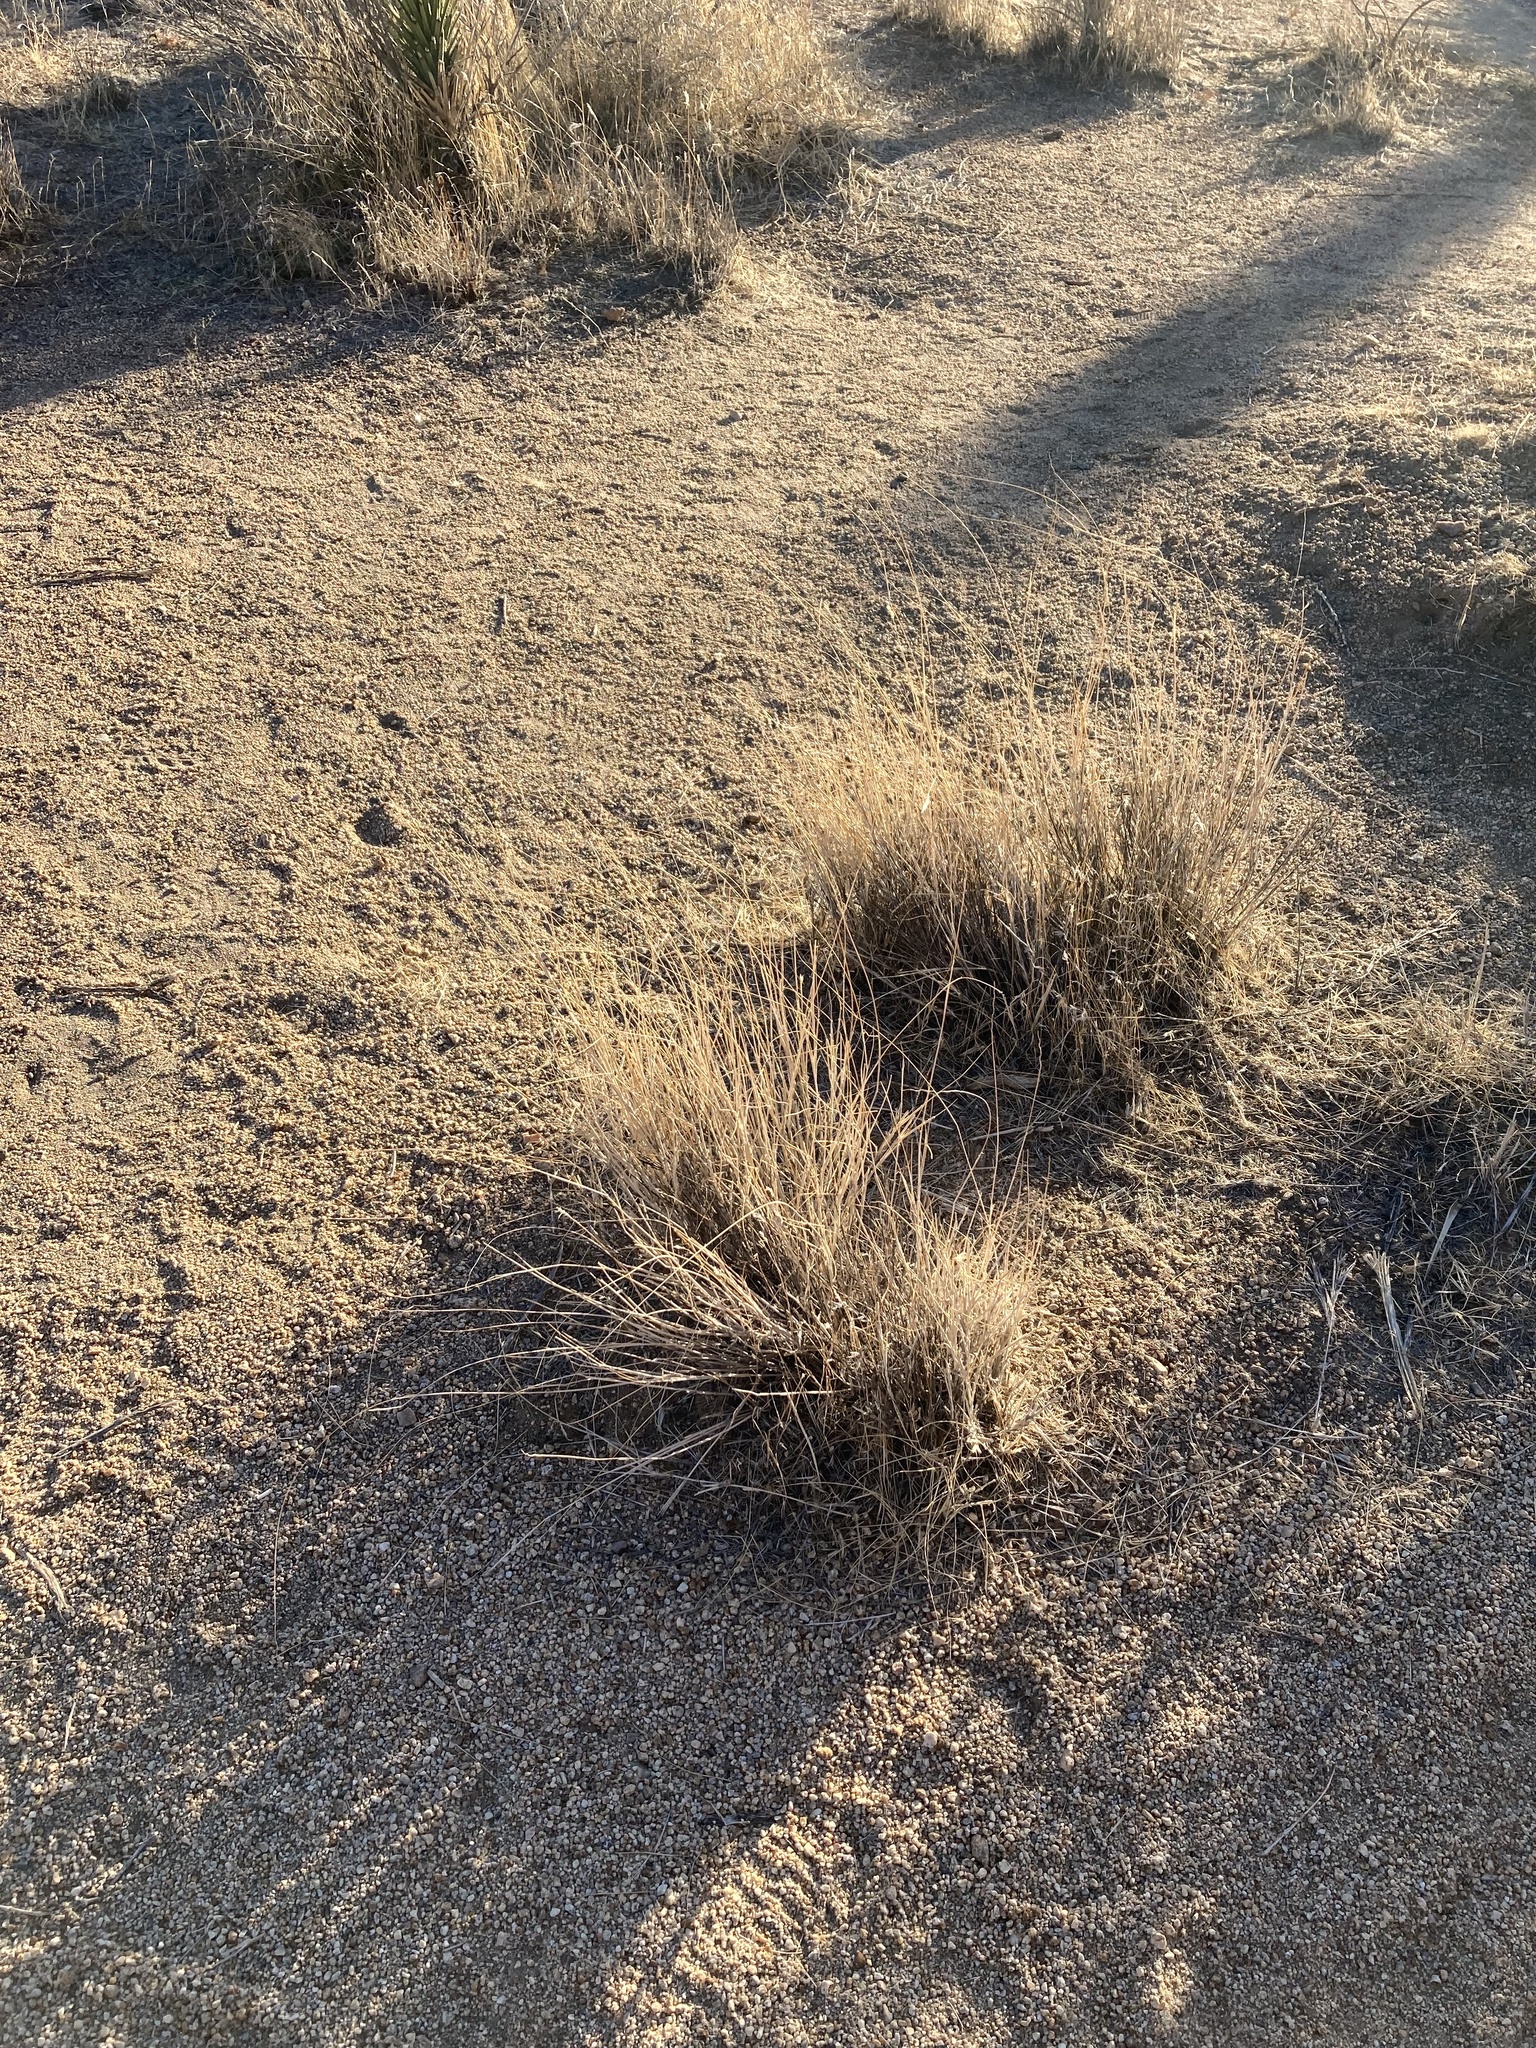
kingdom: Plantae
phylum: Tracheophyta
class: Liliopsida
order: Poales
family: Poaceae
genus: Hilaria
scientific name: Hilaria rigida
